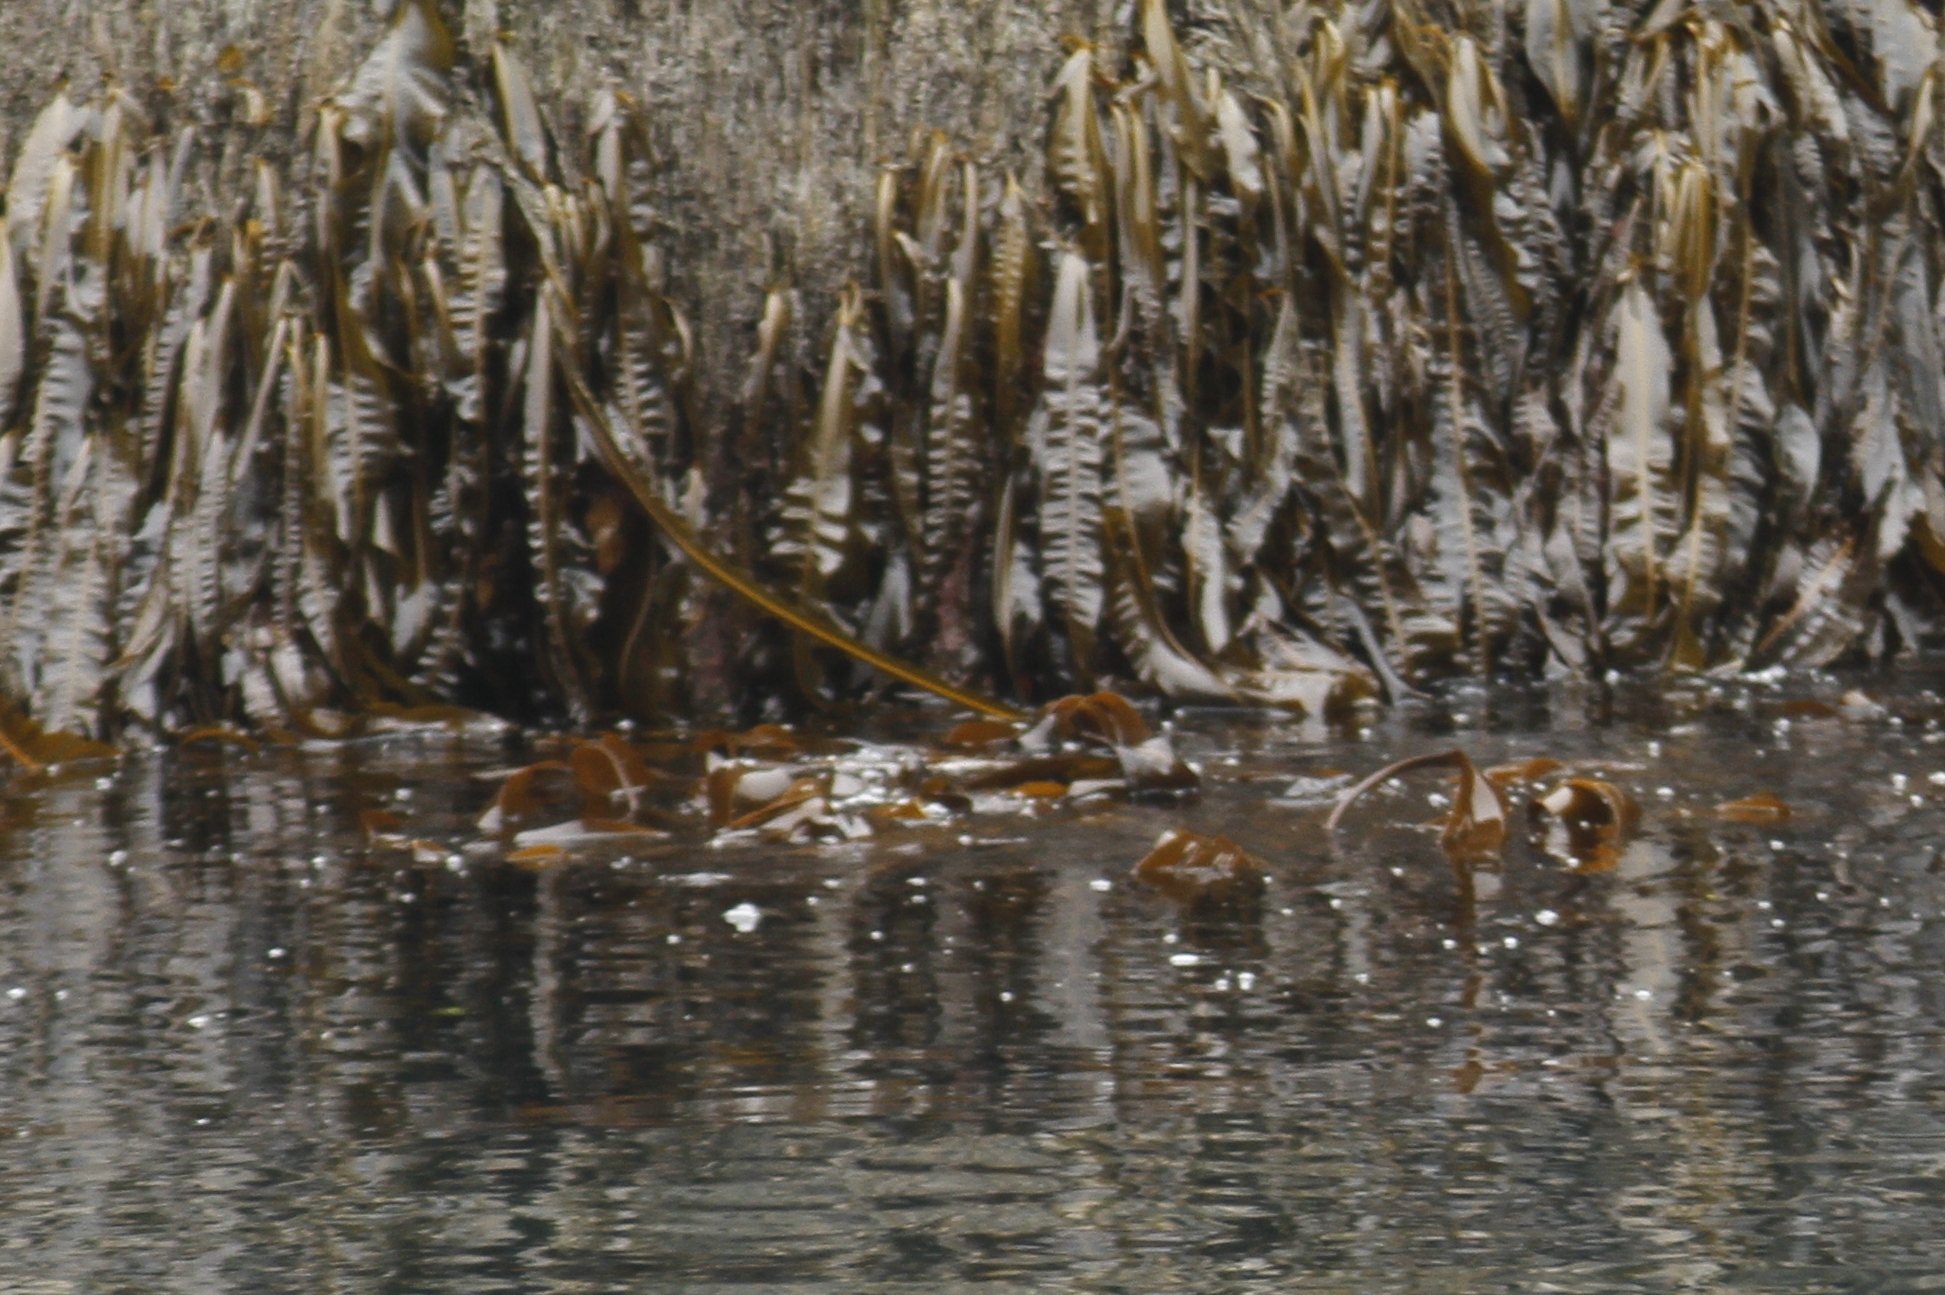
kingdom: Chromista
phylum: Ochrophyta
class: Phaeophyceae
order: Laminariales
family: Alariaceae
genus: Alaria
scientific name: Alaria marginata
